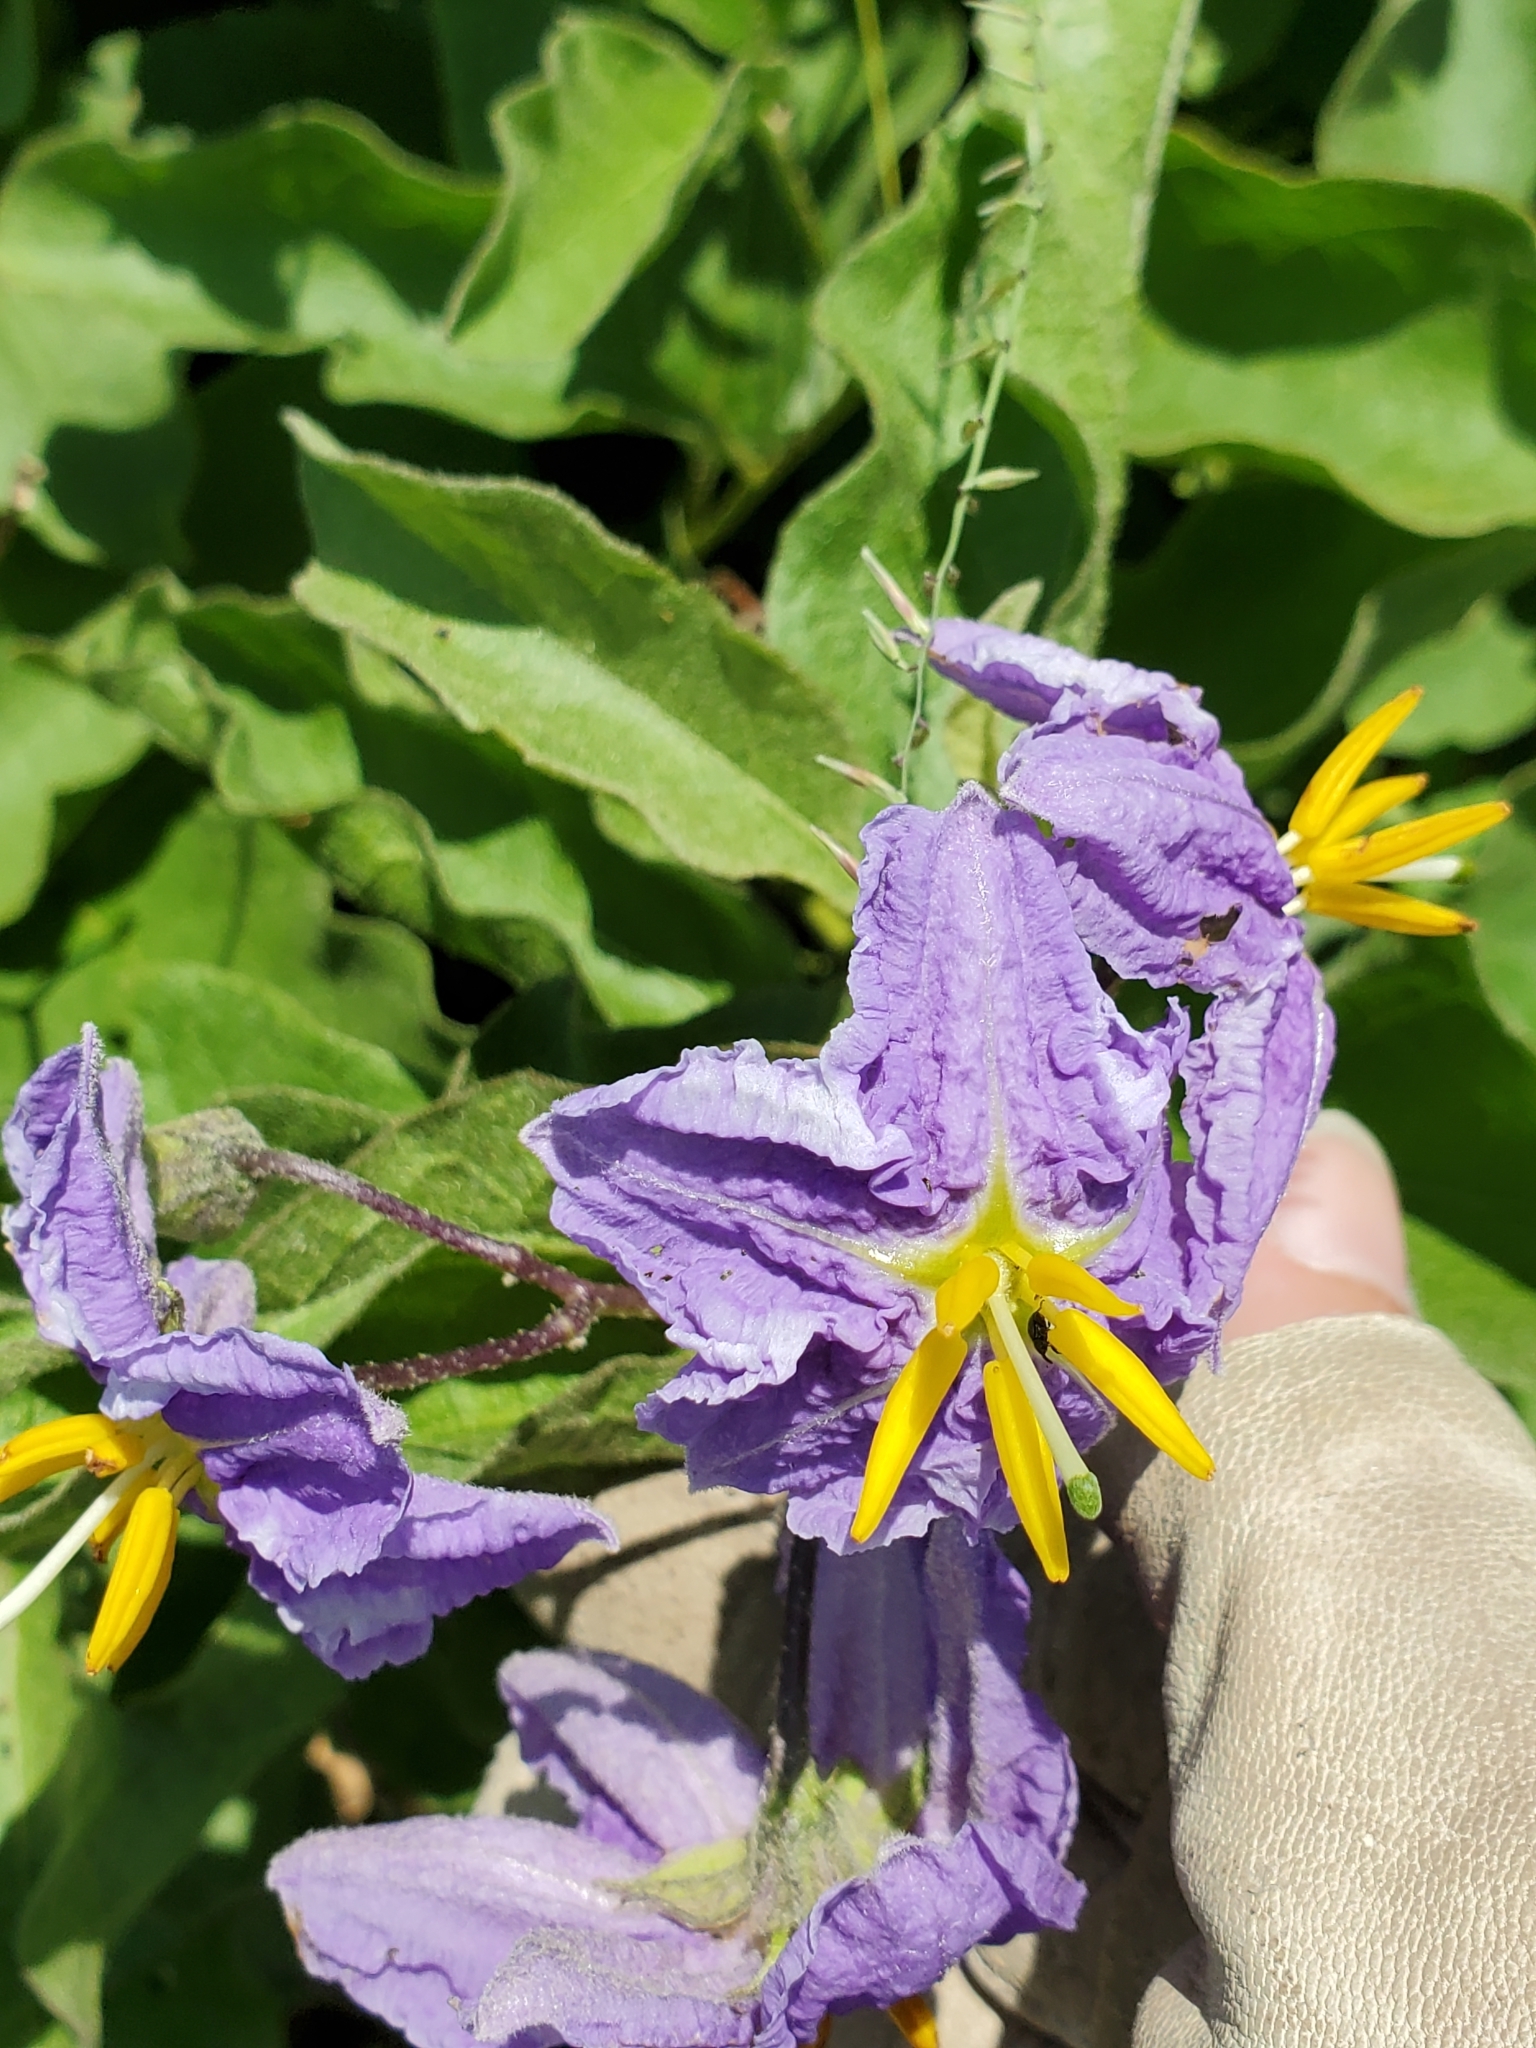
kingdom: Plantae
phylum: Tracheophyta
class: Magnoliopsida
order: Solanales
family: Solanaceae
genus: Solanum
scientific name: Solanum dimidiatum
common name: Carolina horse-nettle
